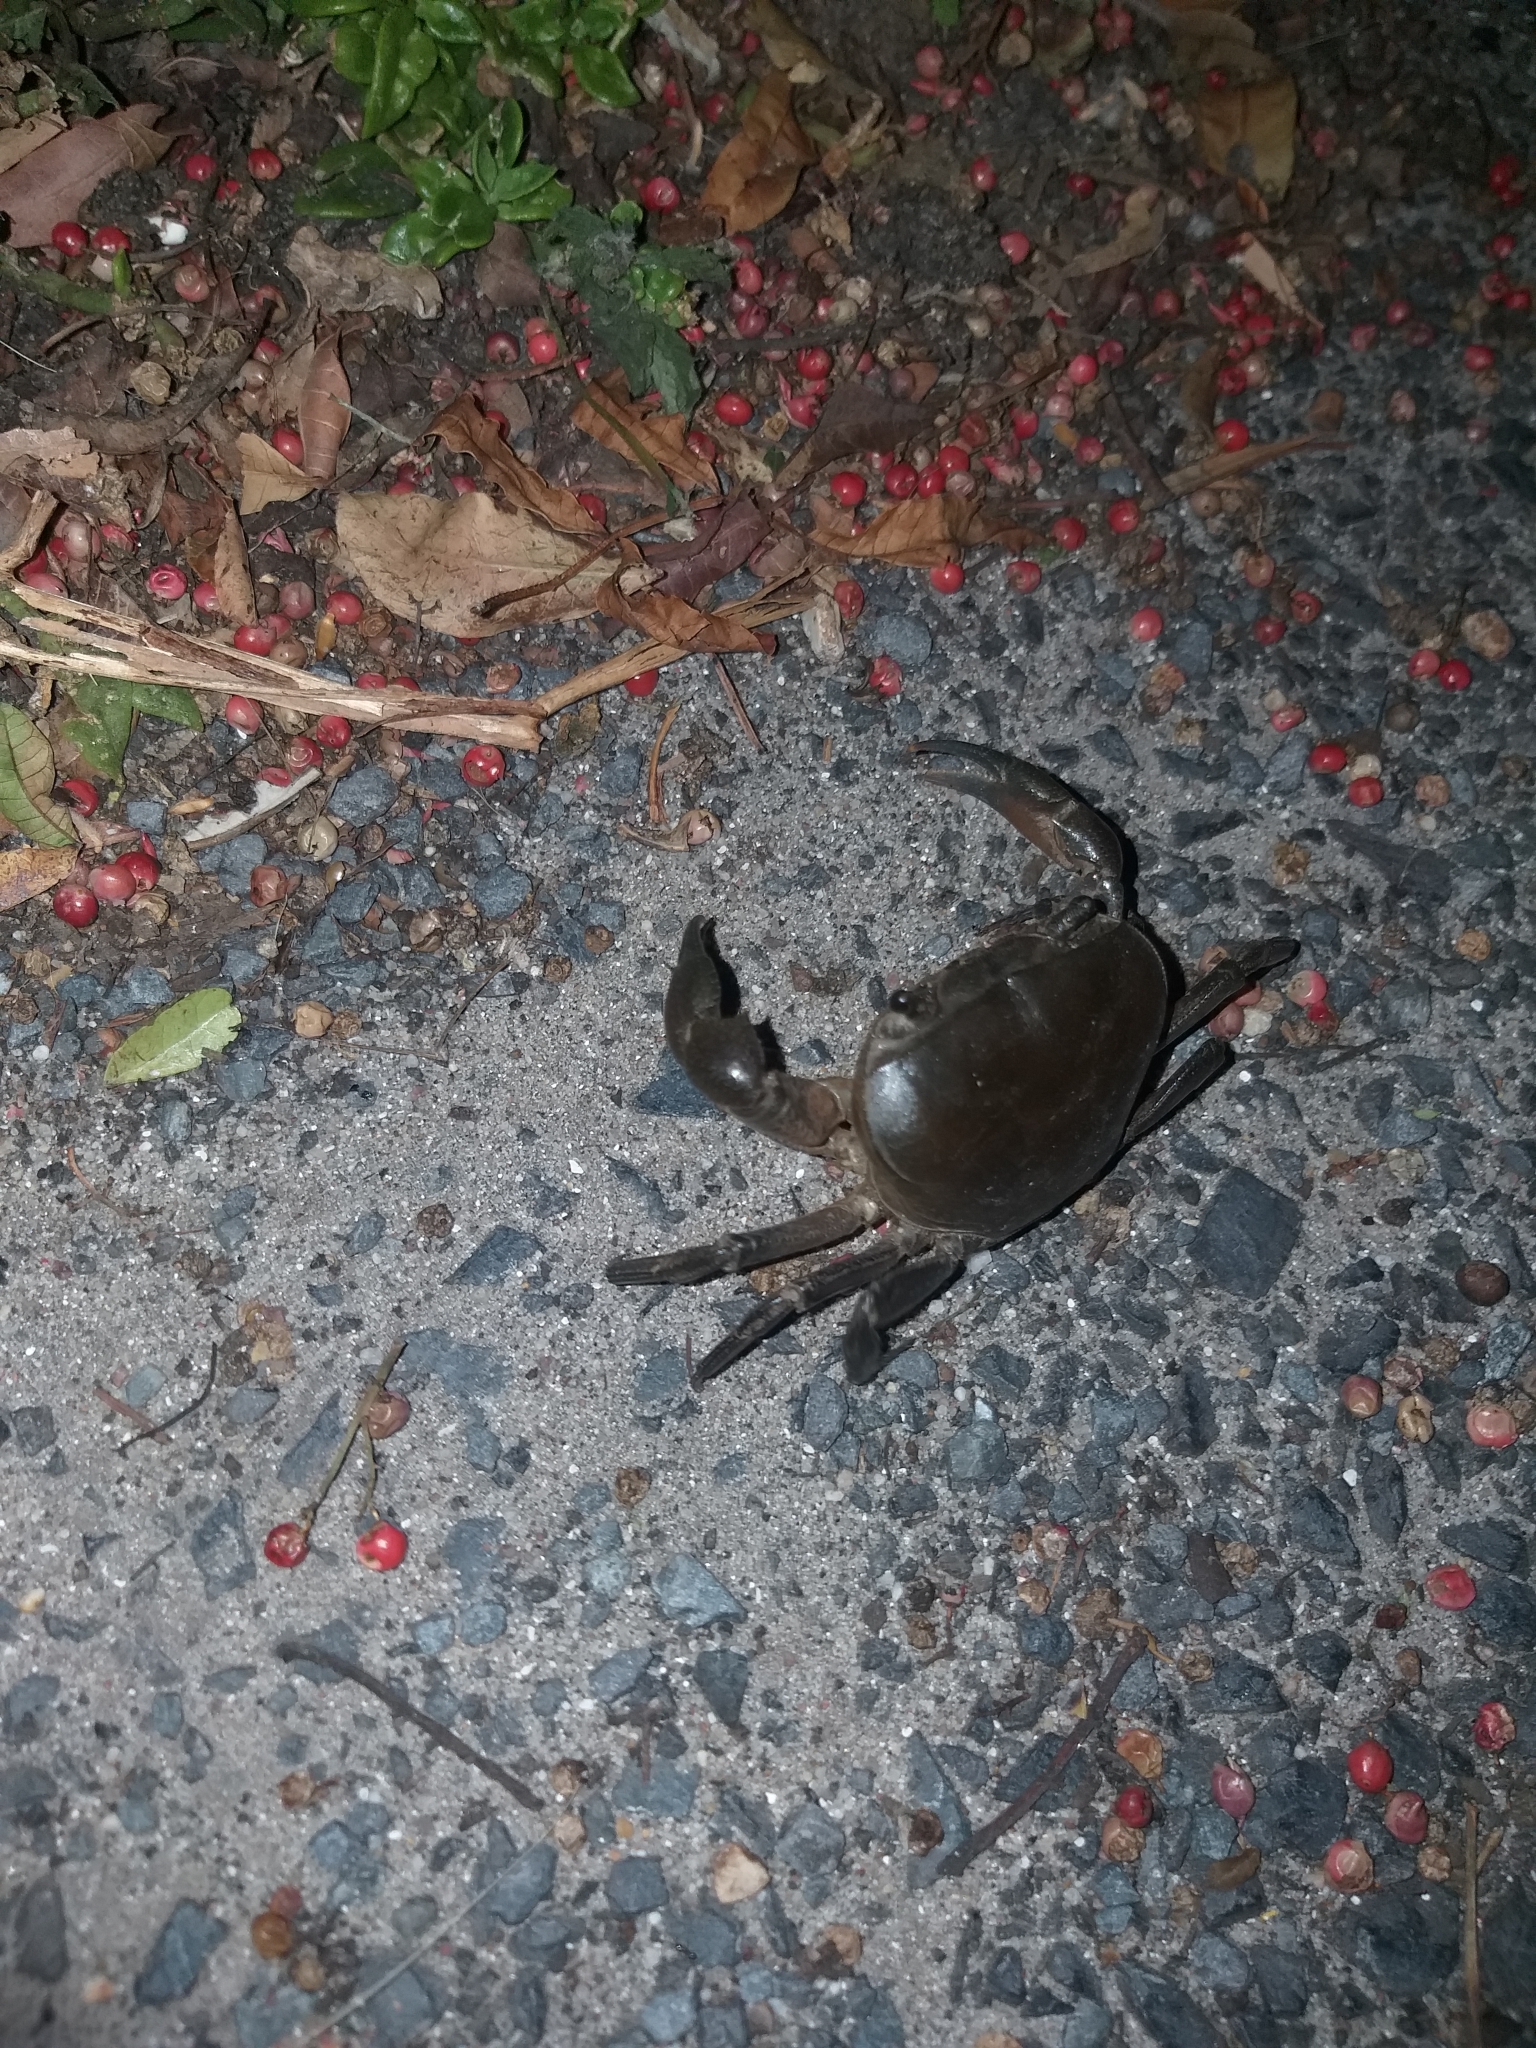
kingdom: Animalia
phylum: Arthropoda
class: Malacostraca
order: Decapoda
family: Potamonautidae
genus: Potamonautes
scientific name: Potamonautes perlatus
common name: Cape river crab
